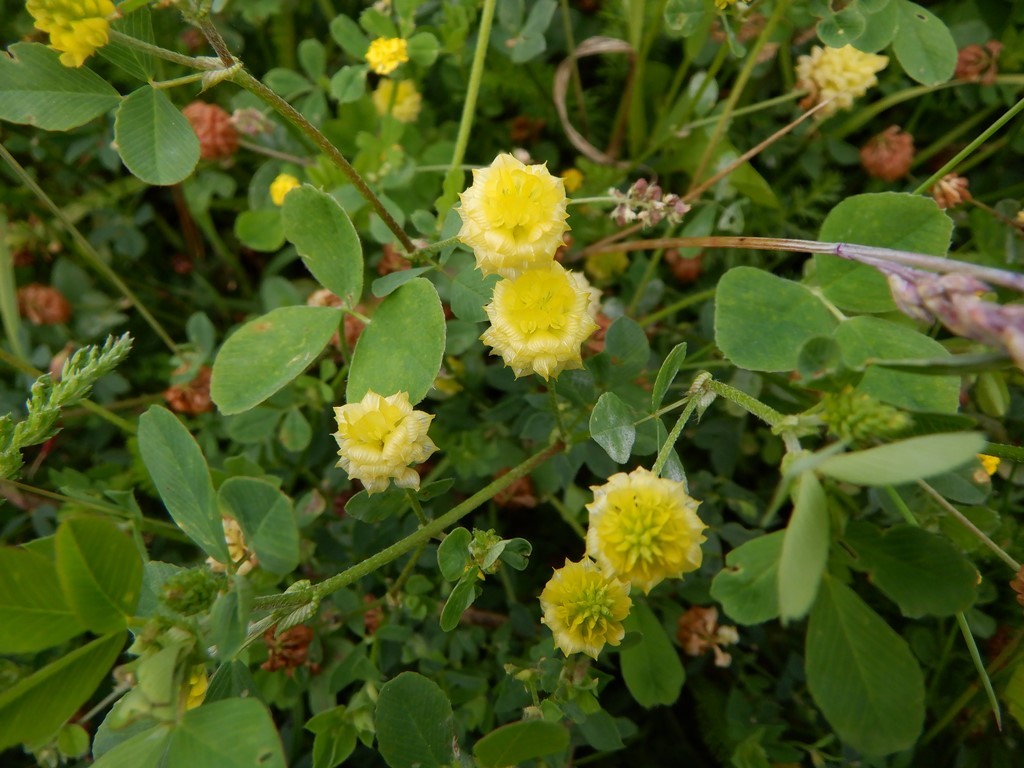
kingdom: Plantae
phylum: Tracheophyta
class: Magnoliopsida
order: Fabales
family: Fabaceae
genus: Trifolium
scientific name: Trifolium campestre
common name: Field clover
